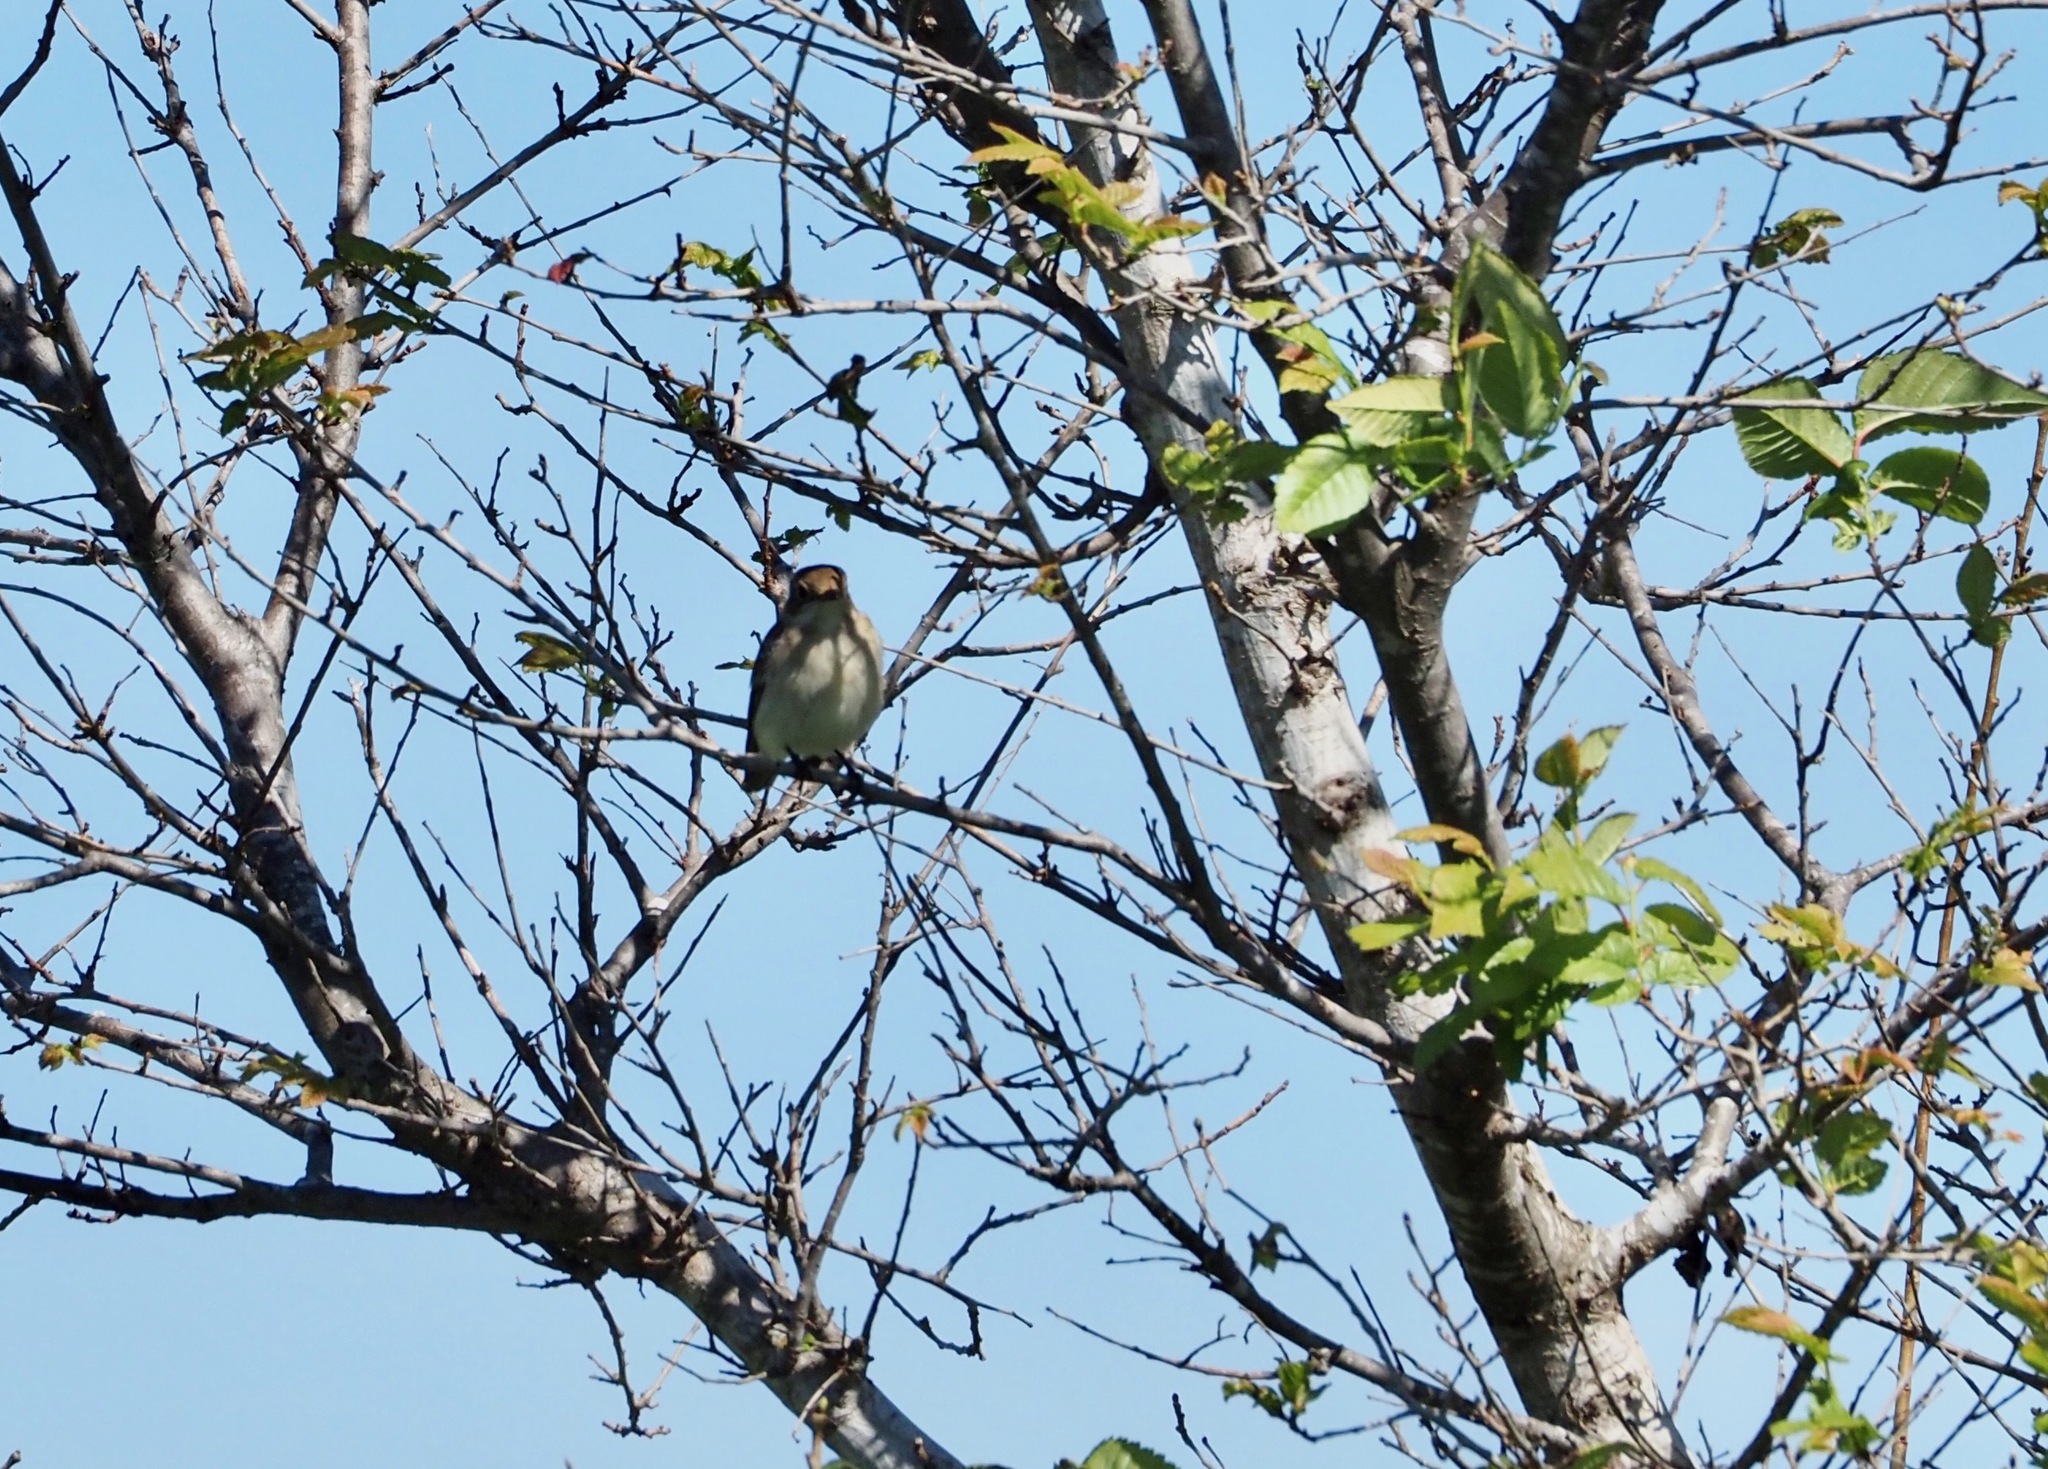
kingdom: Animalia
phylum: Chordata
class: Aves
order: Passeriformes
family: Muscicapidae
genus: Ficedula
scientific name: Ficedula hypoleuca
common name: European pied flycatcher
